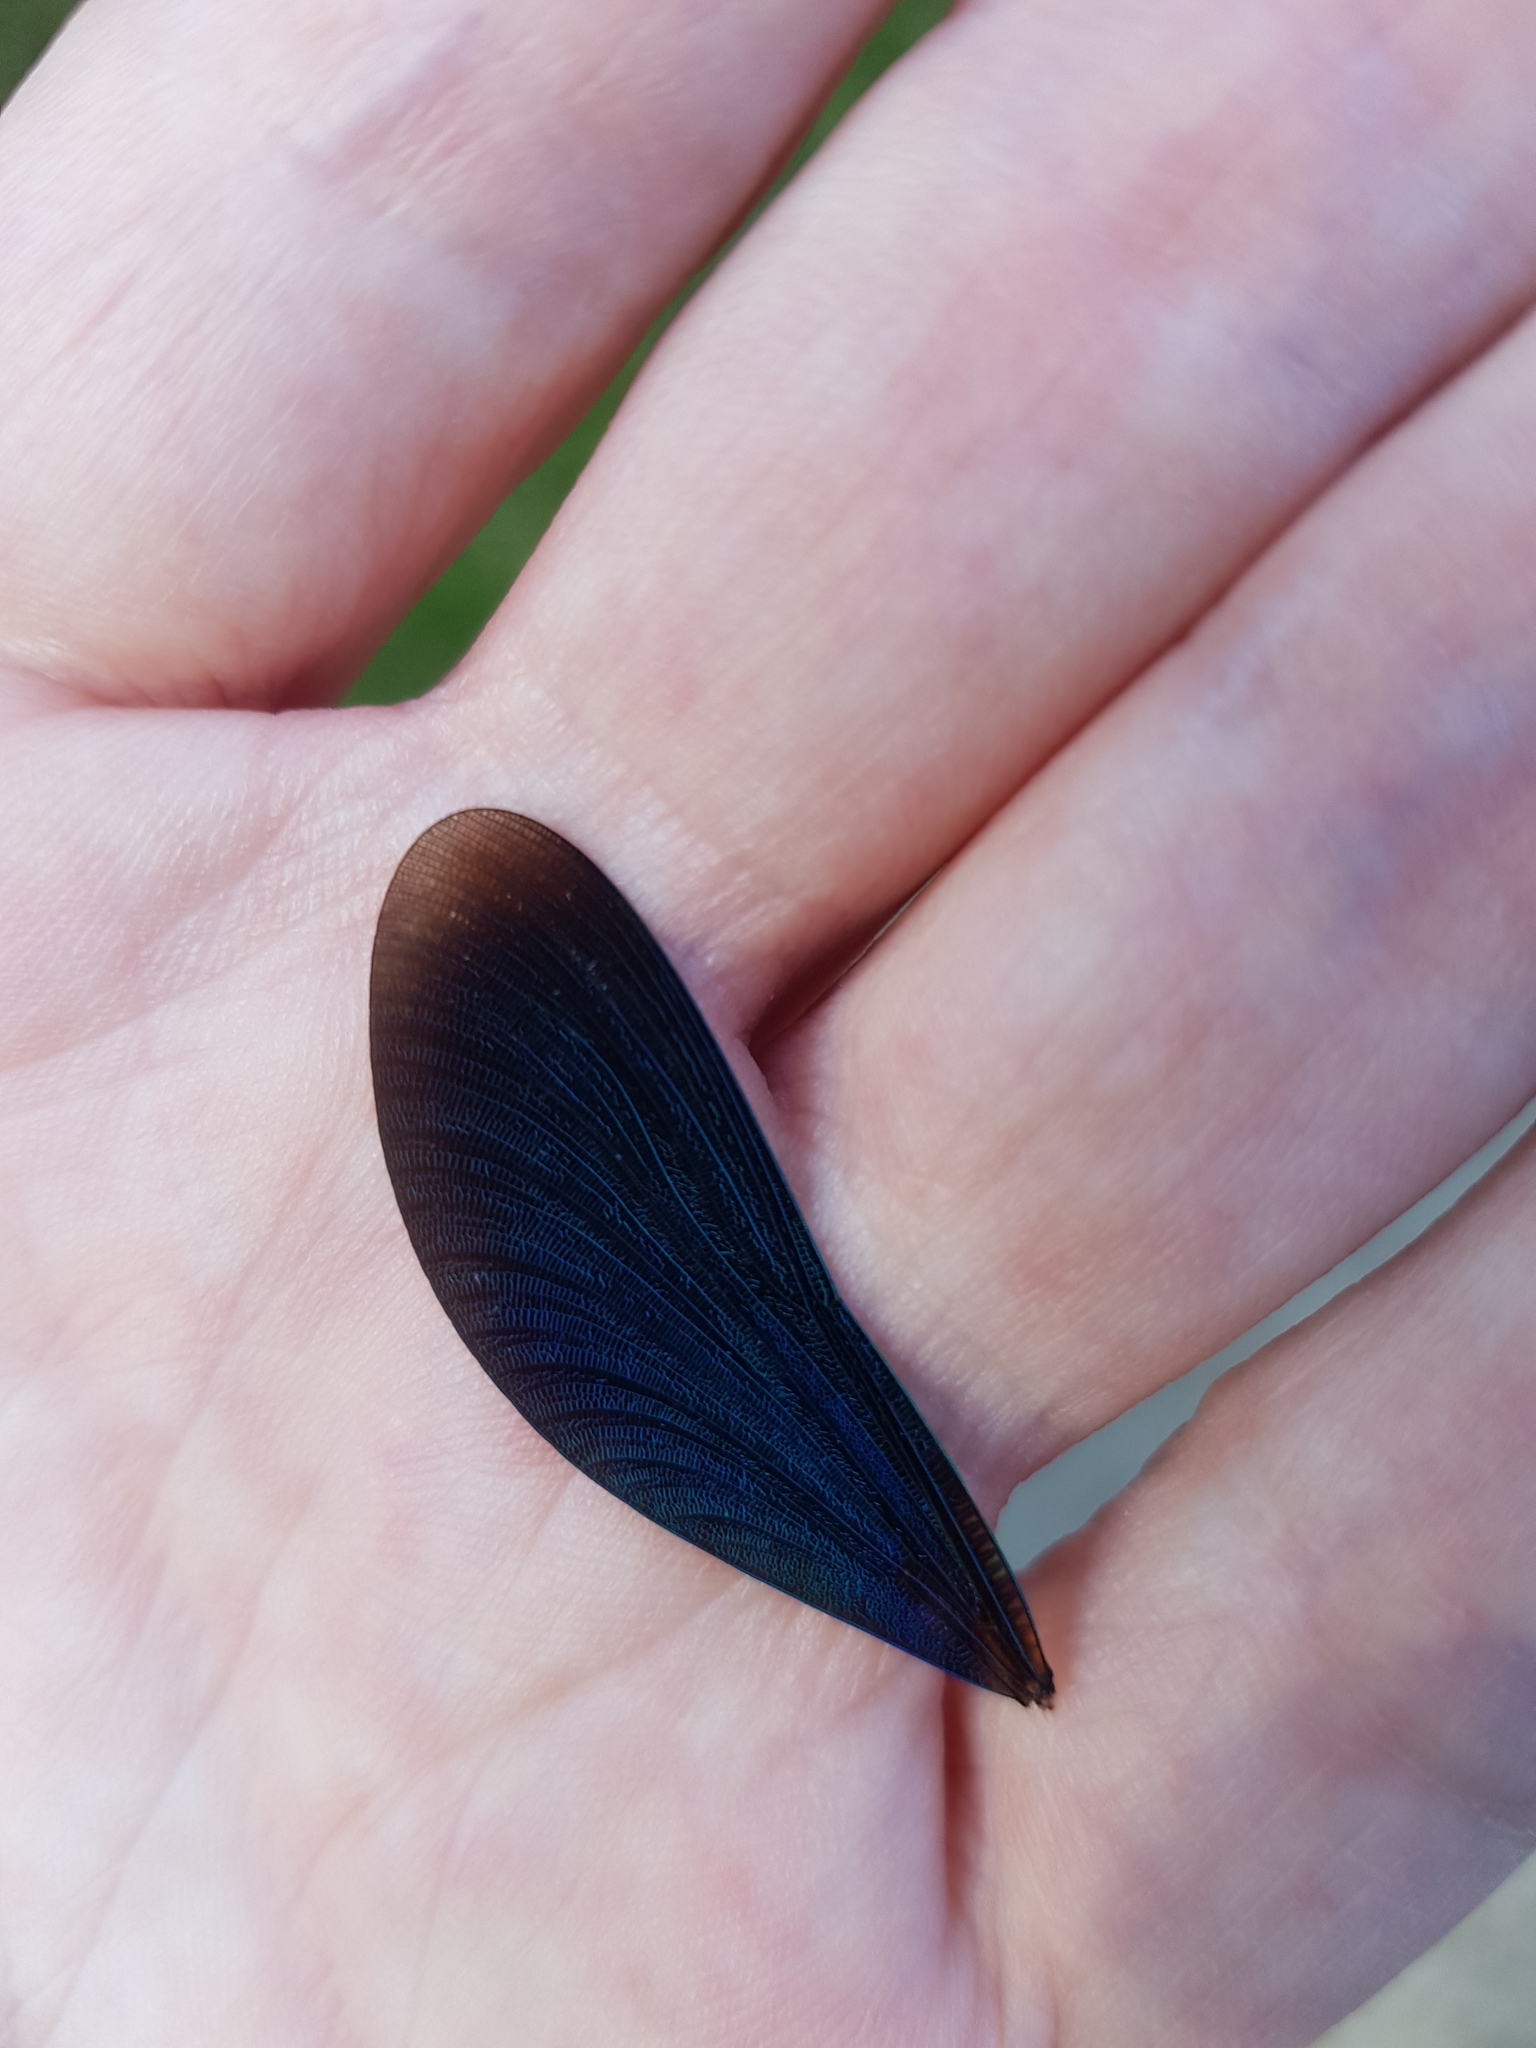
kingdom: Animalia
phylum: Arthropoda
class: Insecta
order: Odonata
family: Calopterygidae
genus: Calopteryx
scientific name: Calopteryx virgo
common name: Beautiful demoiselle
